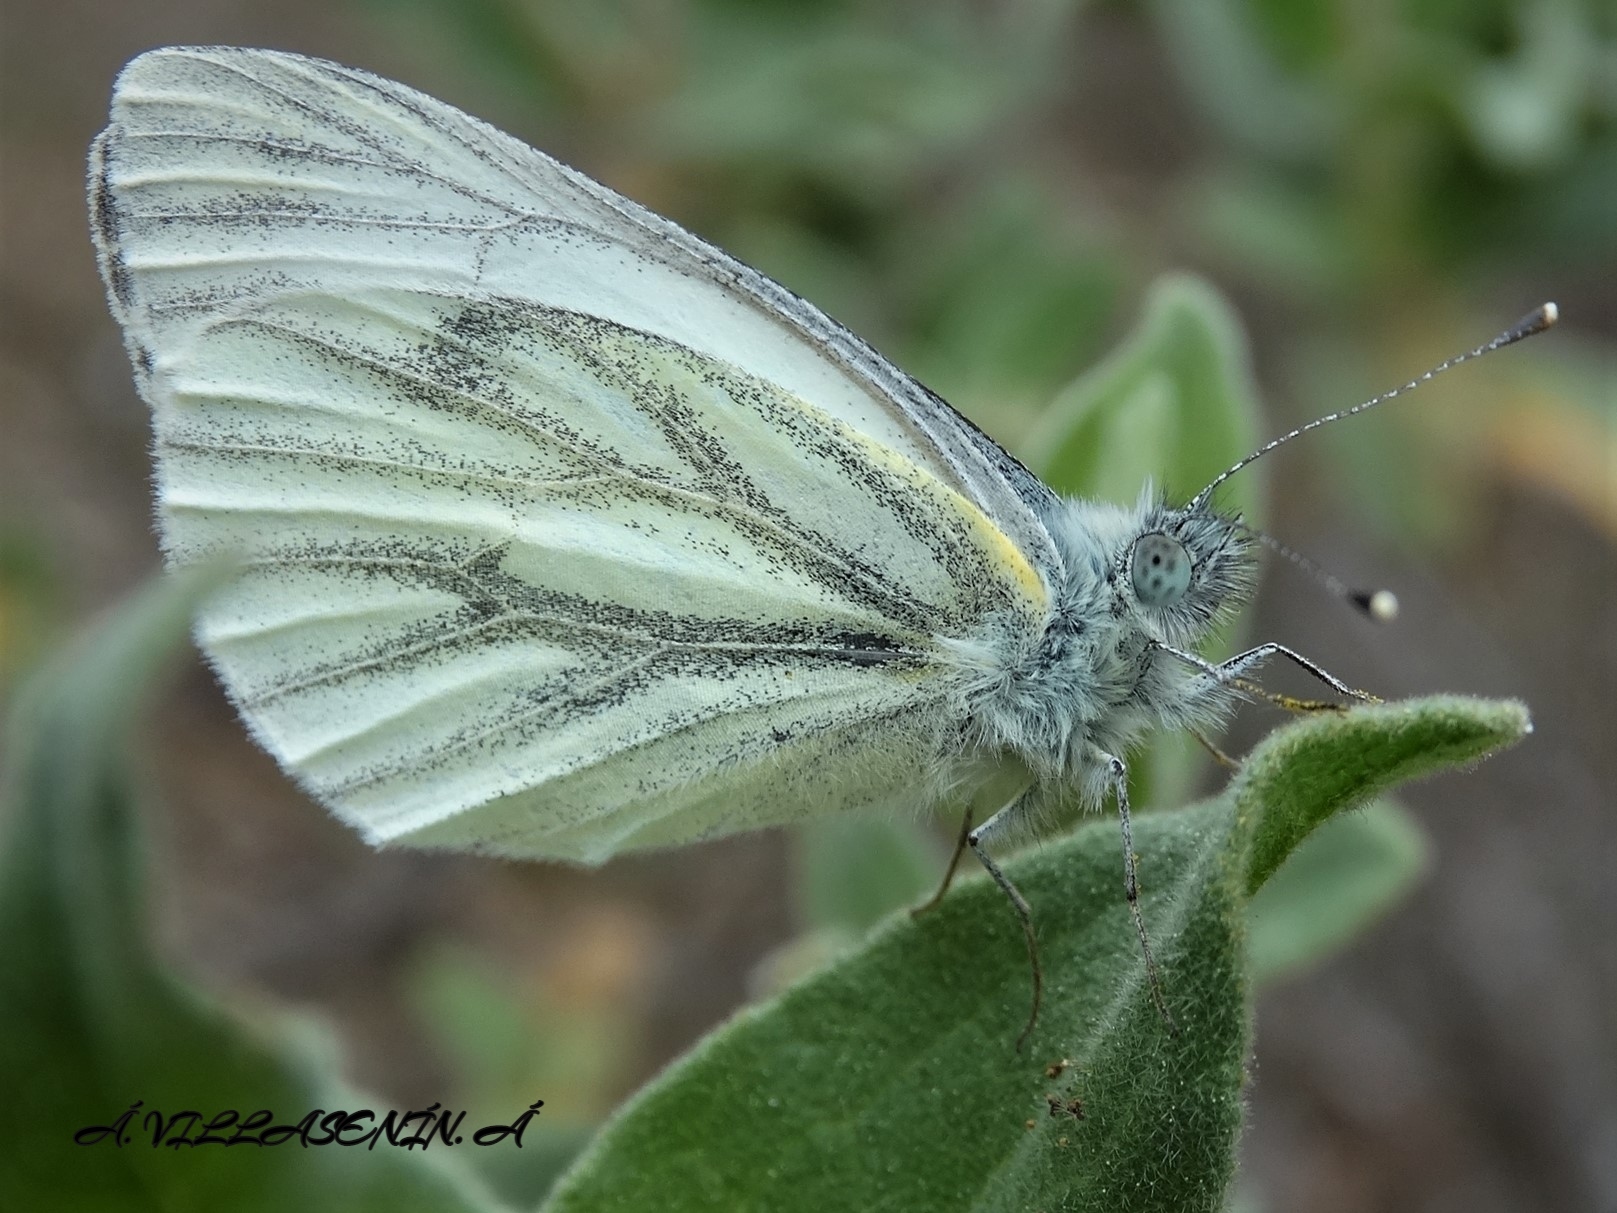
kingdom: Animalia
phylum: Arthropoda
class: Insecta
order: Lepidoptera
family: Pieridae
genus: Pieris
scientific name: Pieris napi
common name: Green-veined white
